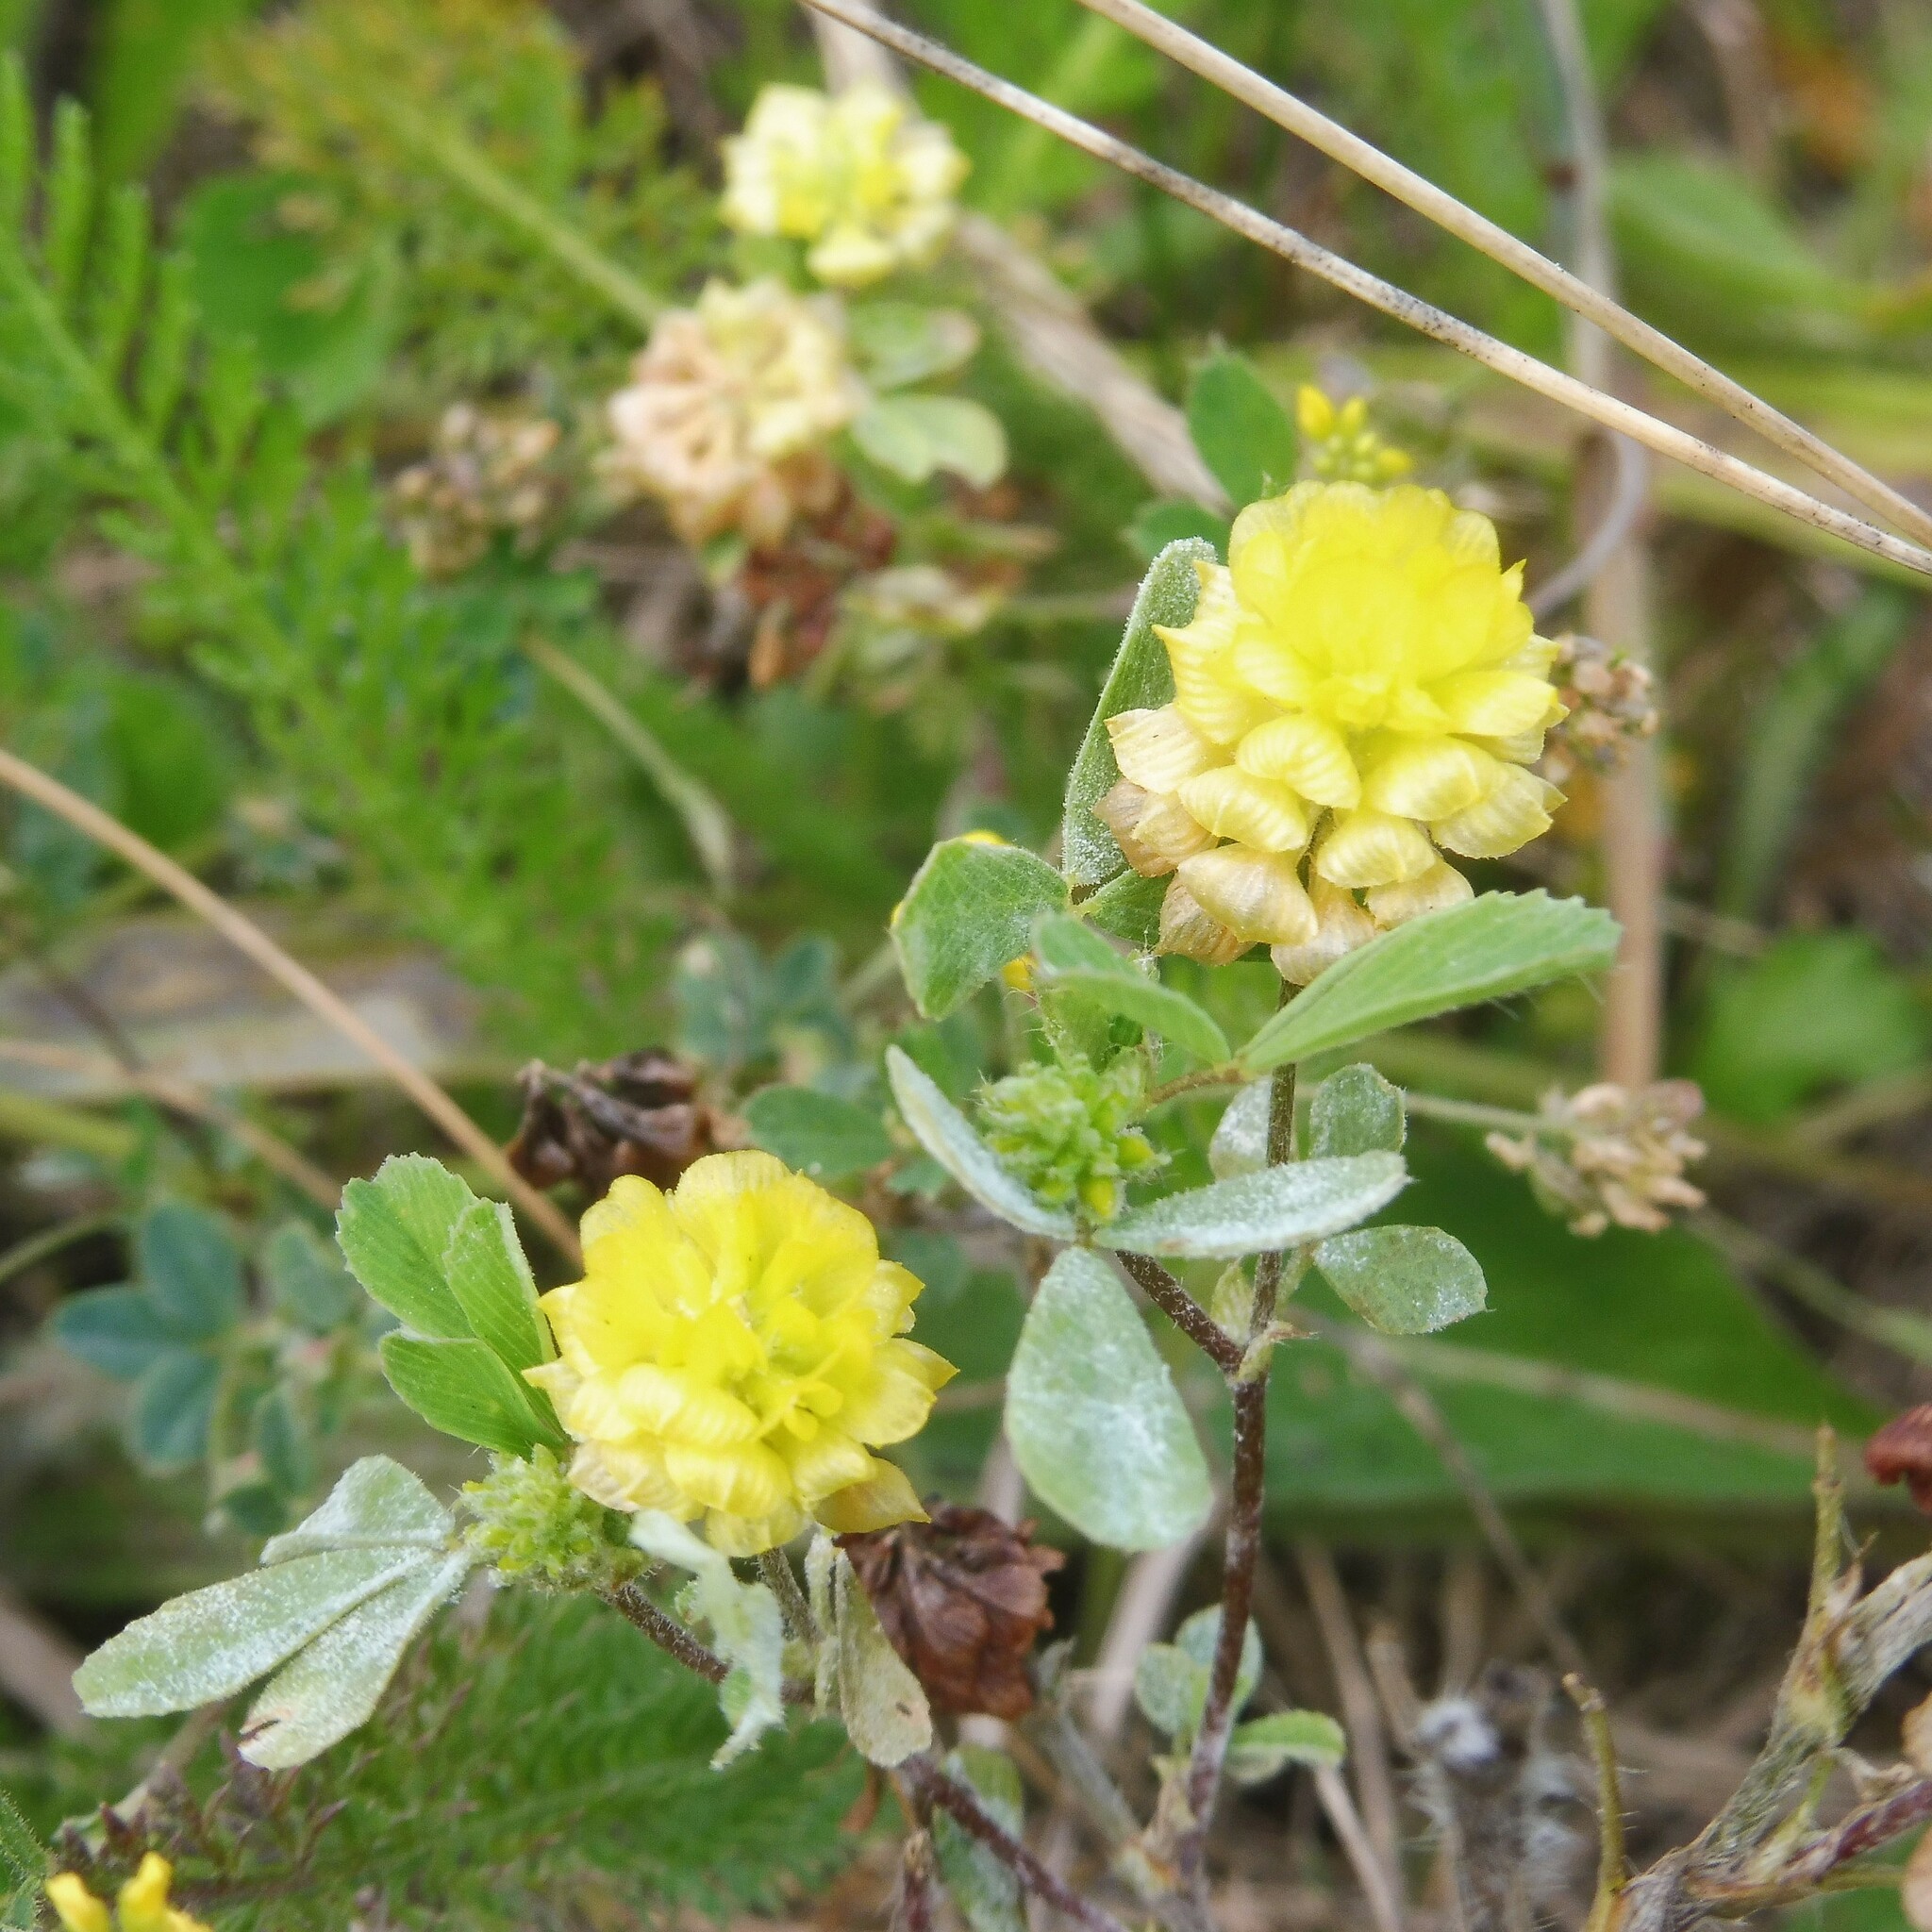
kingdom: Plantae
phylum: Tracheophyta
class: Magnoliopsida
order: Fabales
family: Fabaceae
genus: Trifolium
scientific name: Trifolium campestre
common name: Field clover
